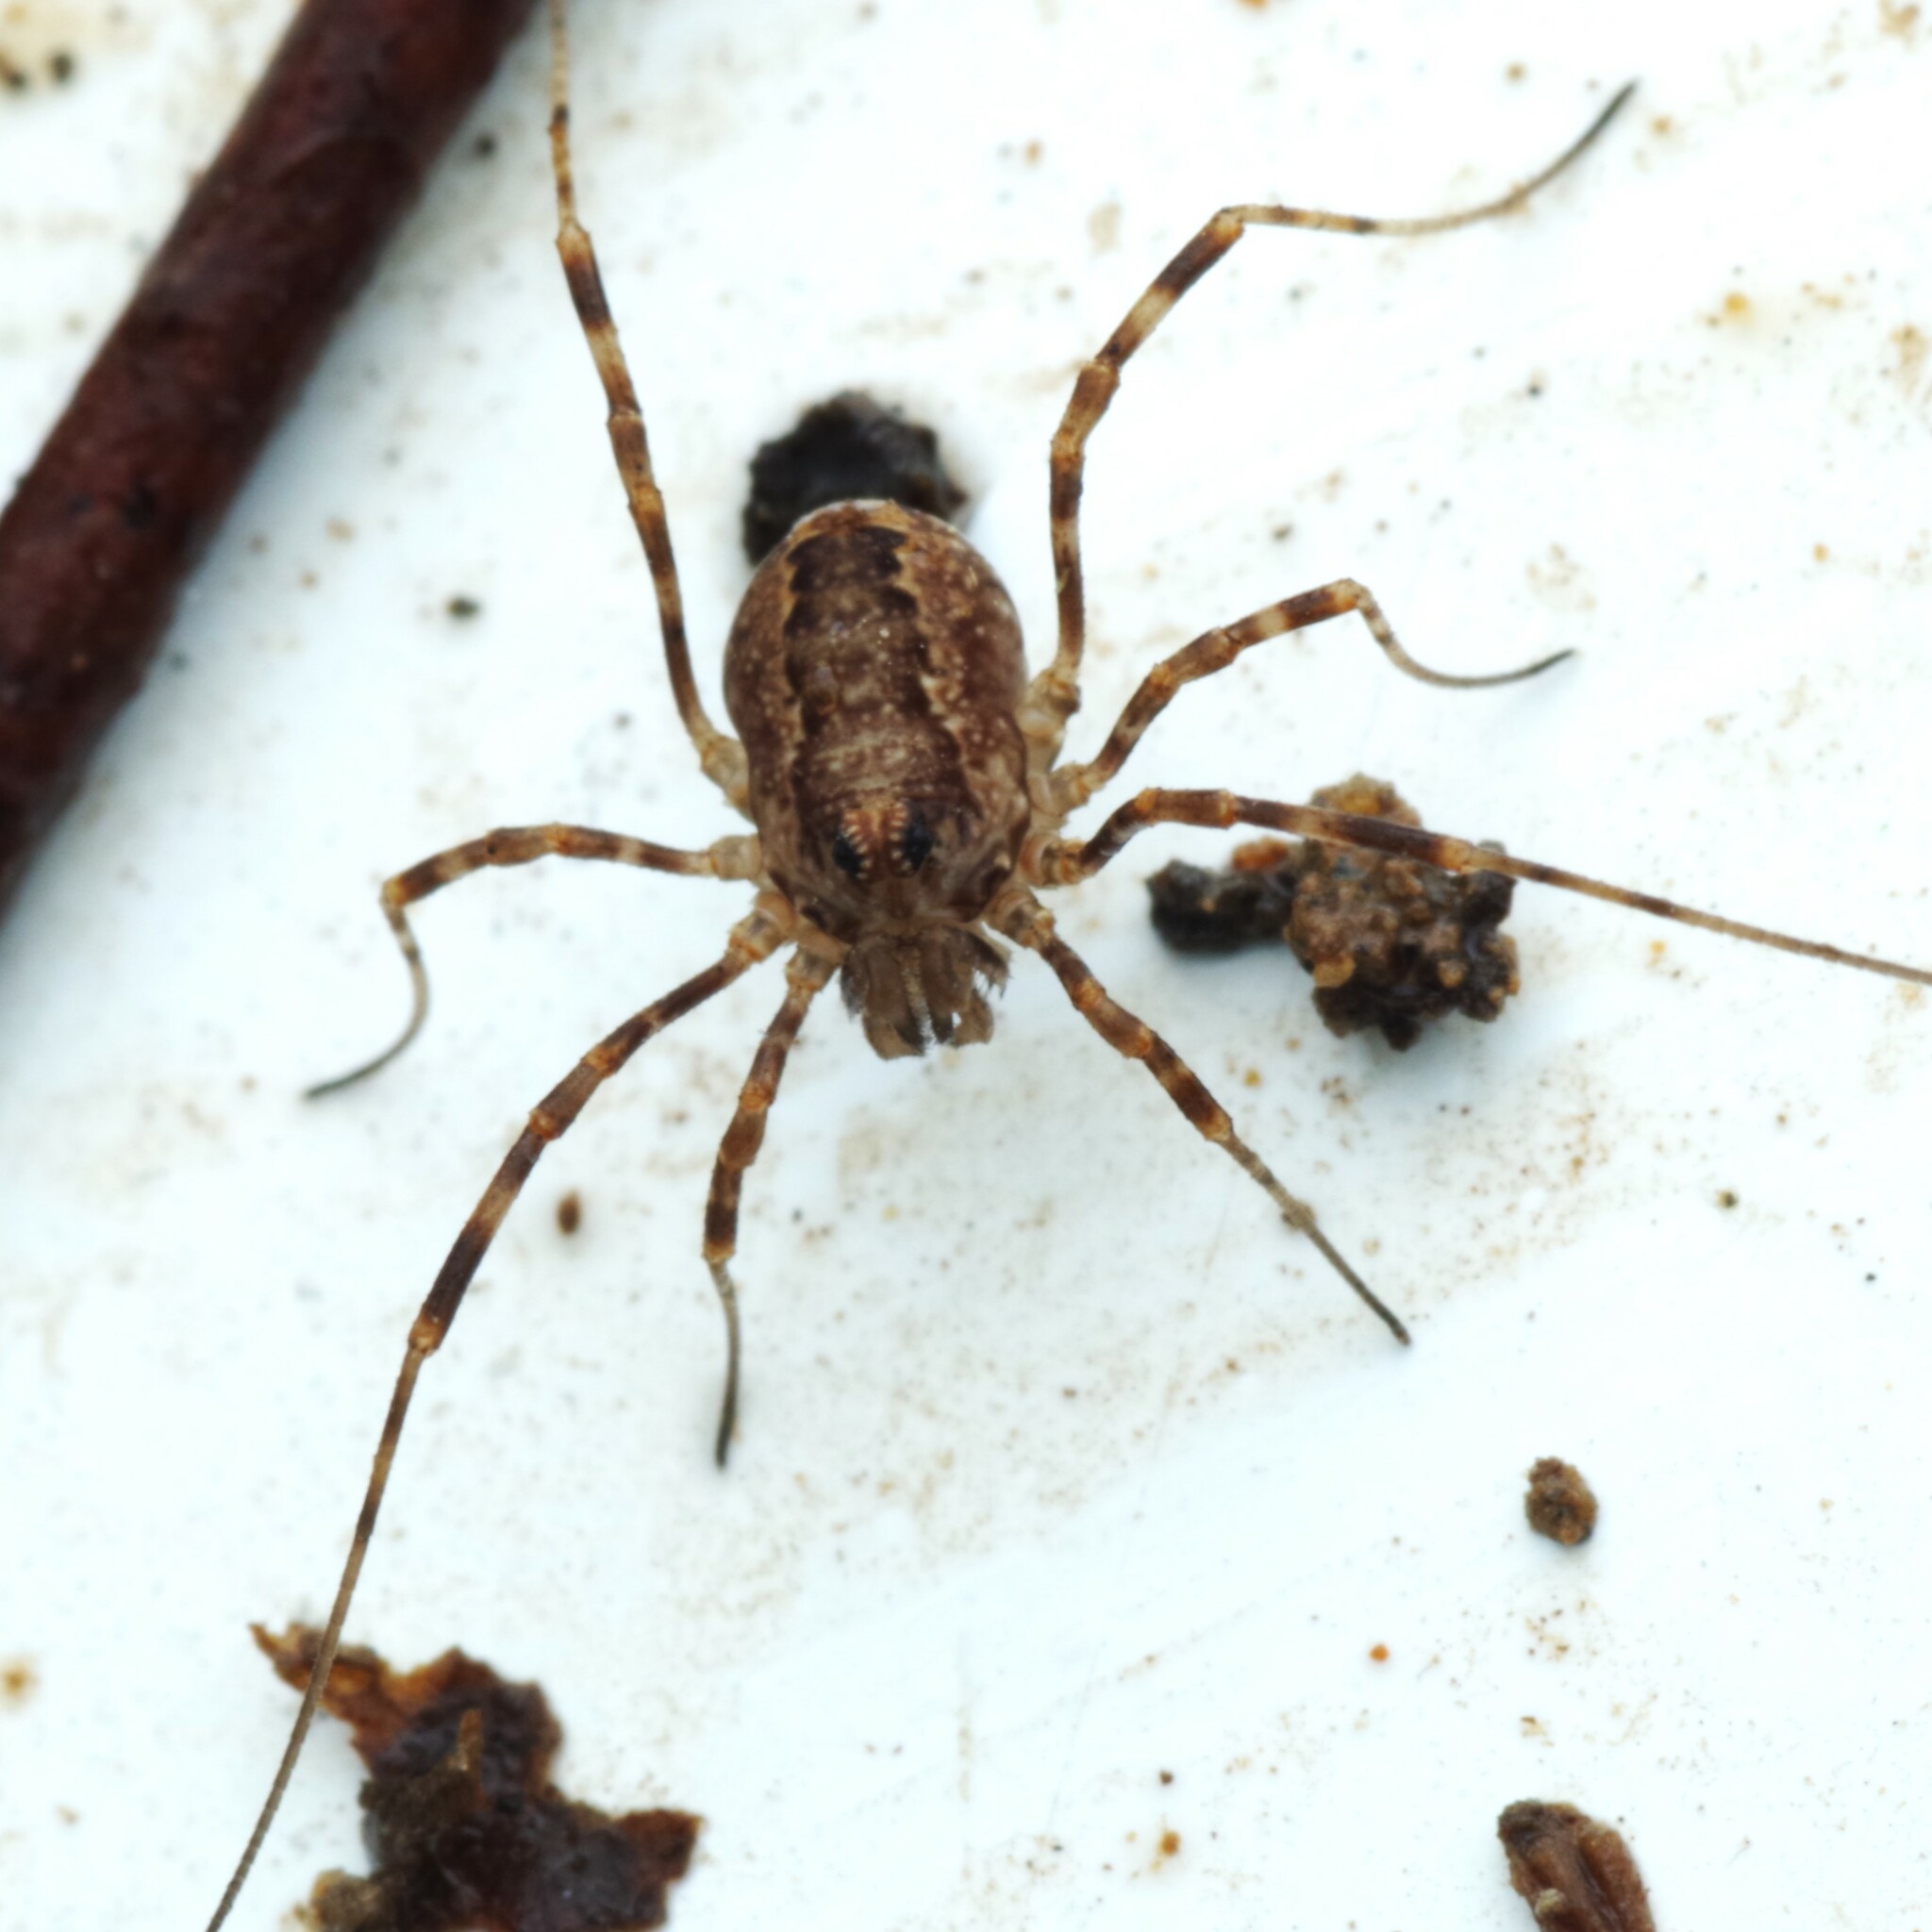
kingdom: Animalia
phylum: Arthropoda
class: Arachnida
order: Opiliones
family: Phalangiidae
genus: Rilaena
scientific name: Rilaena triangularis
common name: Spring harvestman
